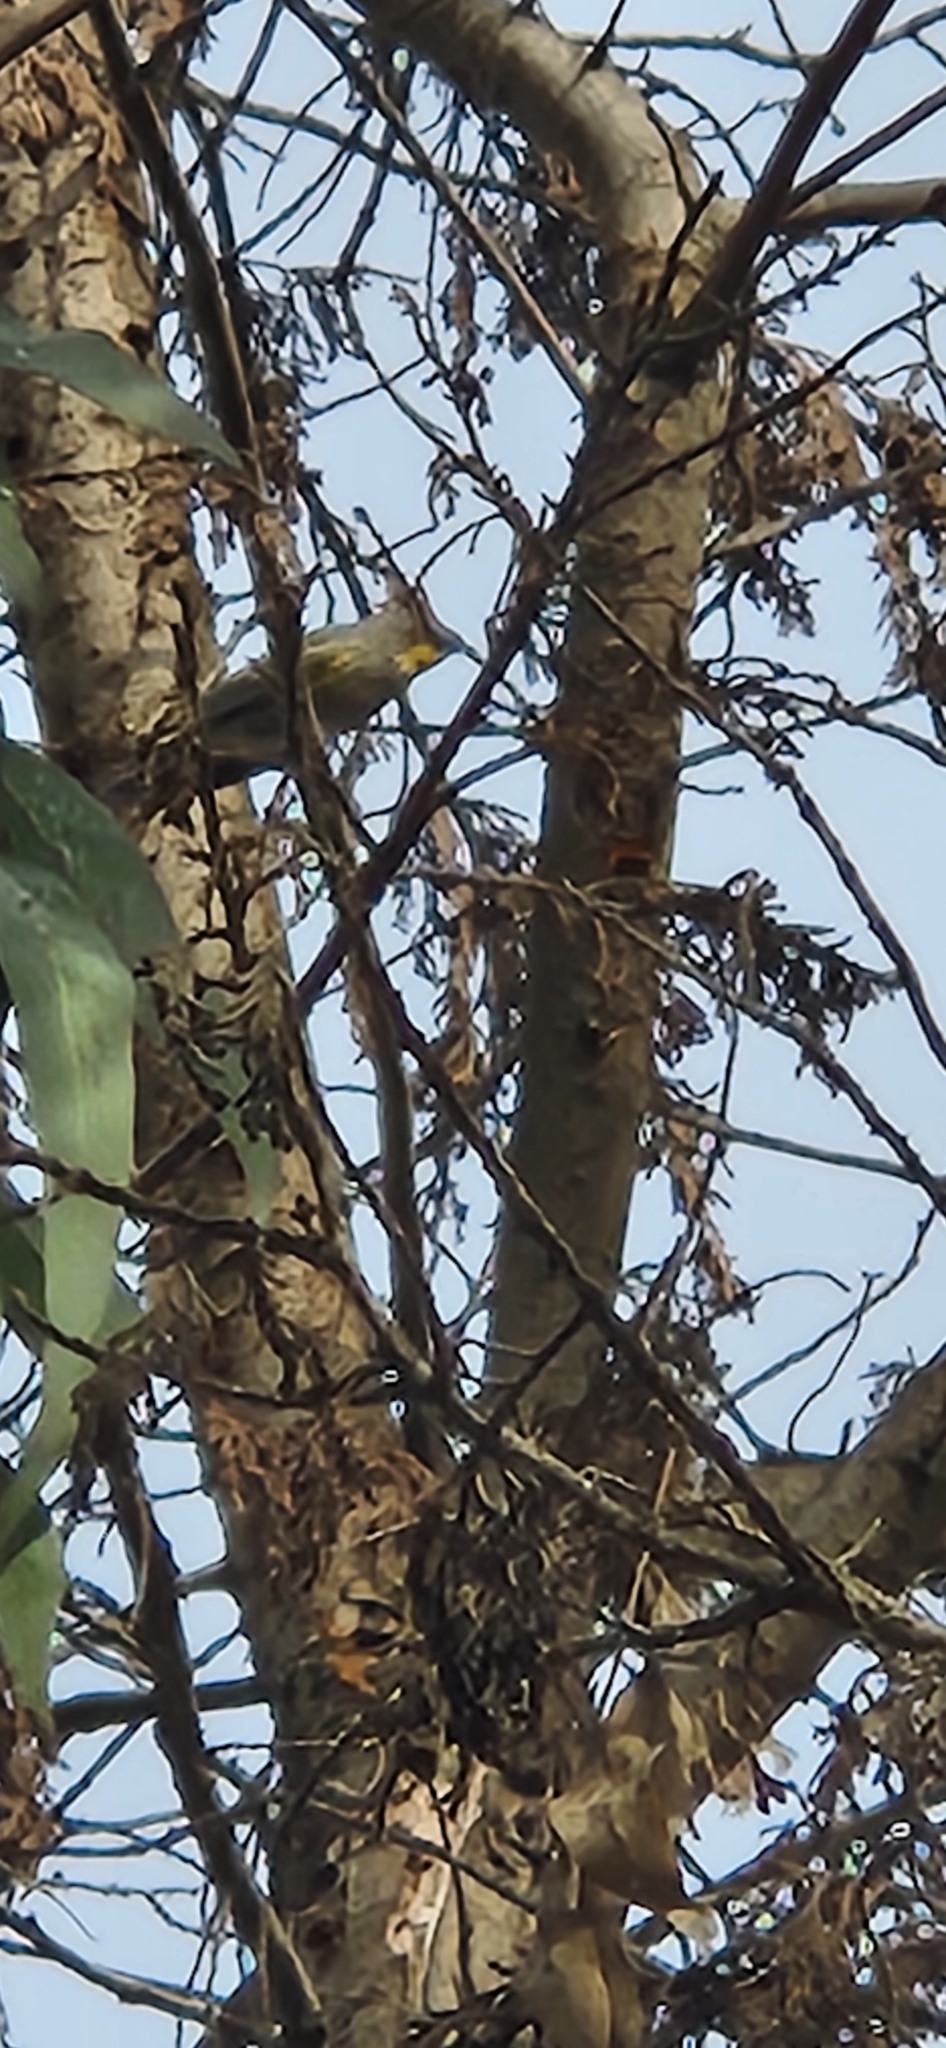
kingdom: Animalia
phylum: Chordata
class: Aves
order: Passeriformes
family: Parulidae
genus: Setophaga
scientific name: Setophaga auduboni
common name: Audubon's warbler
